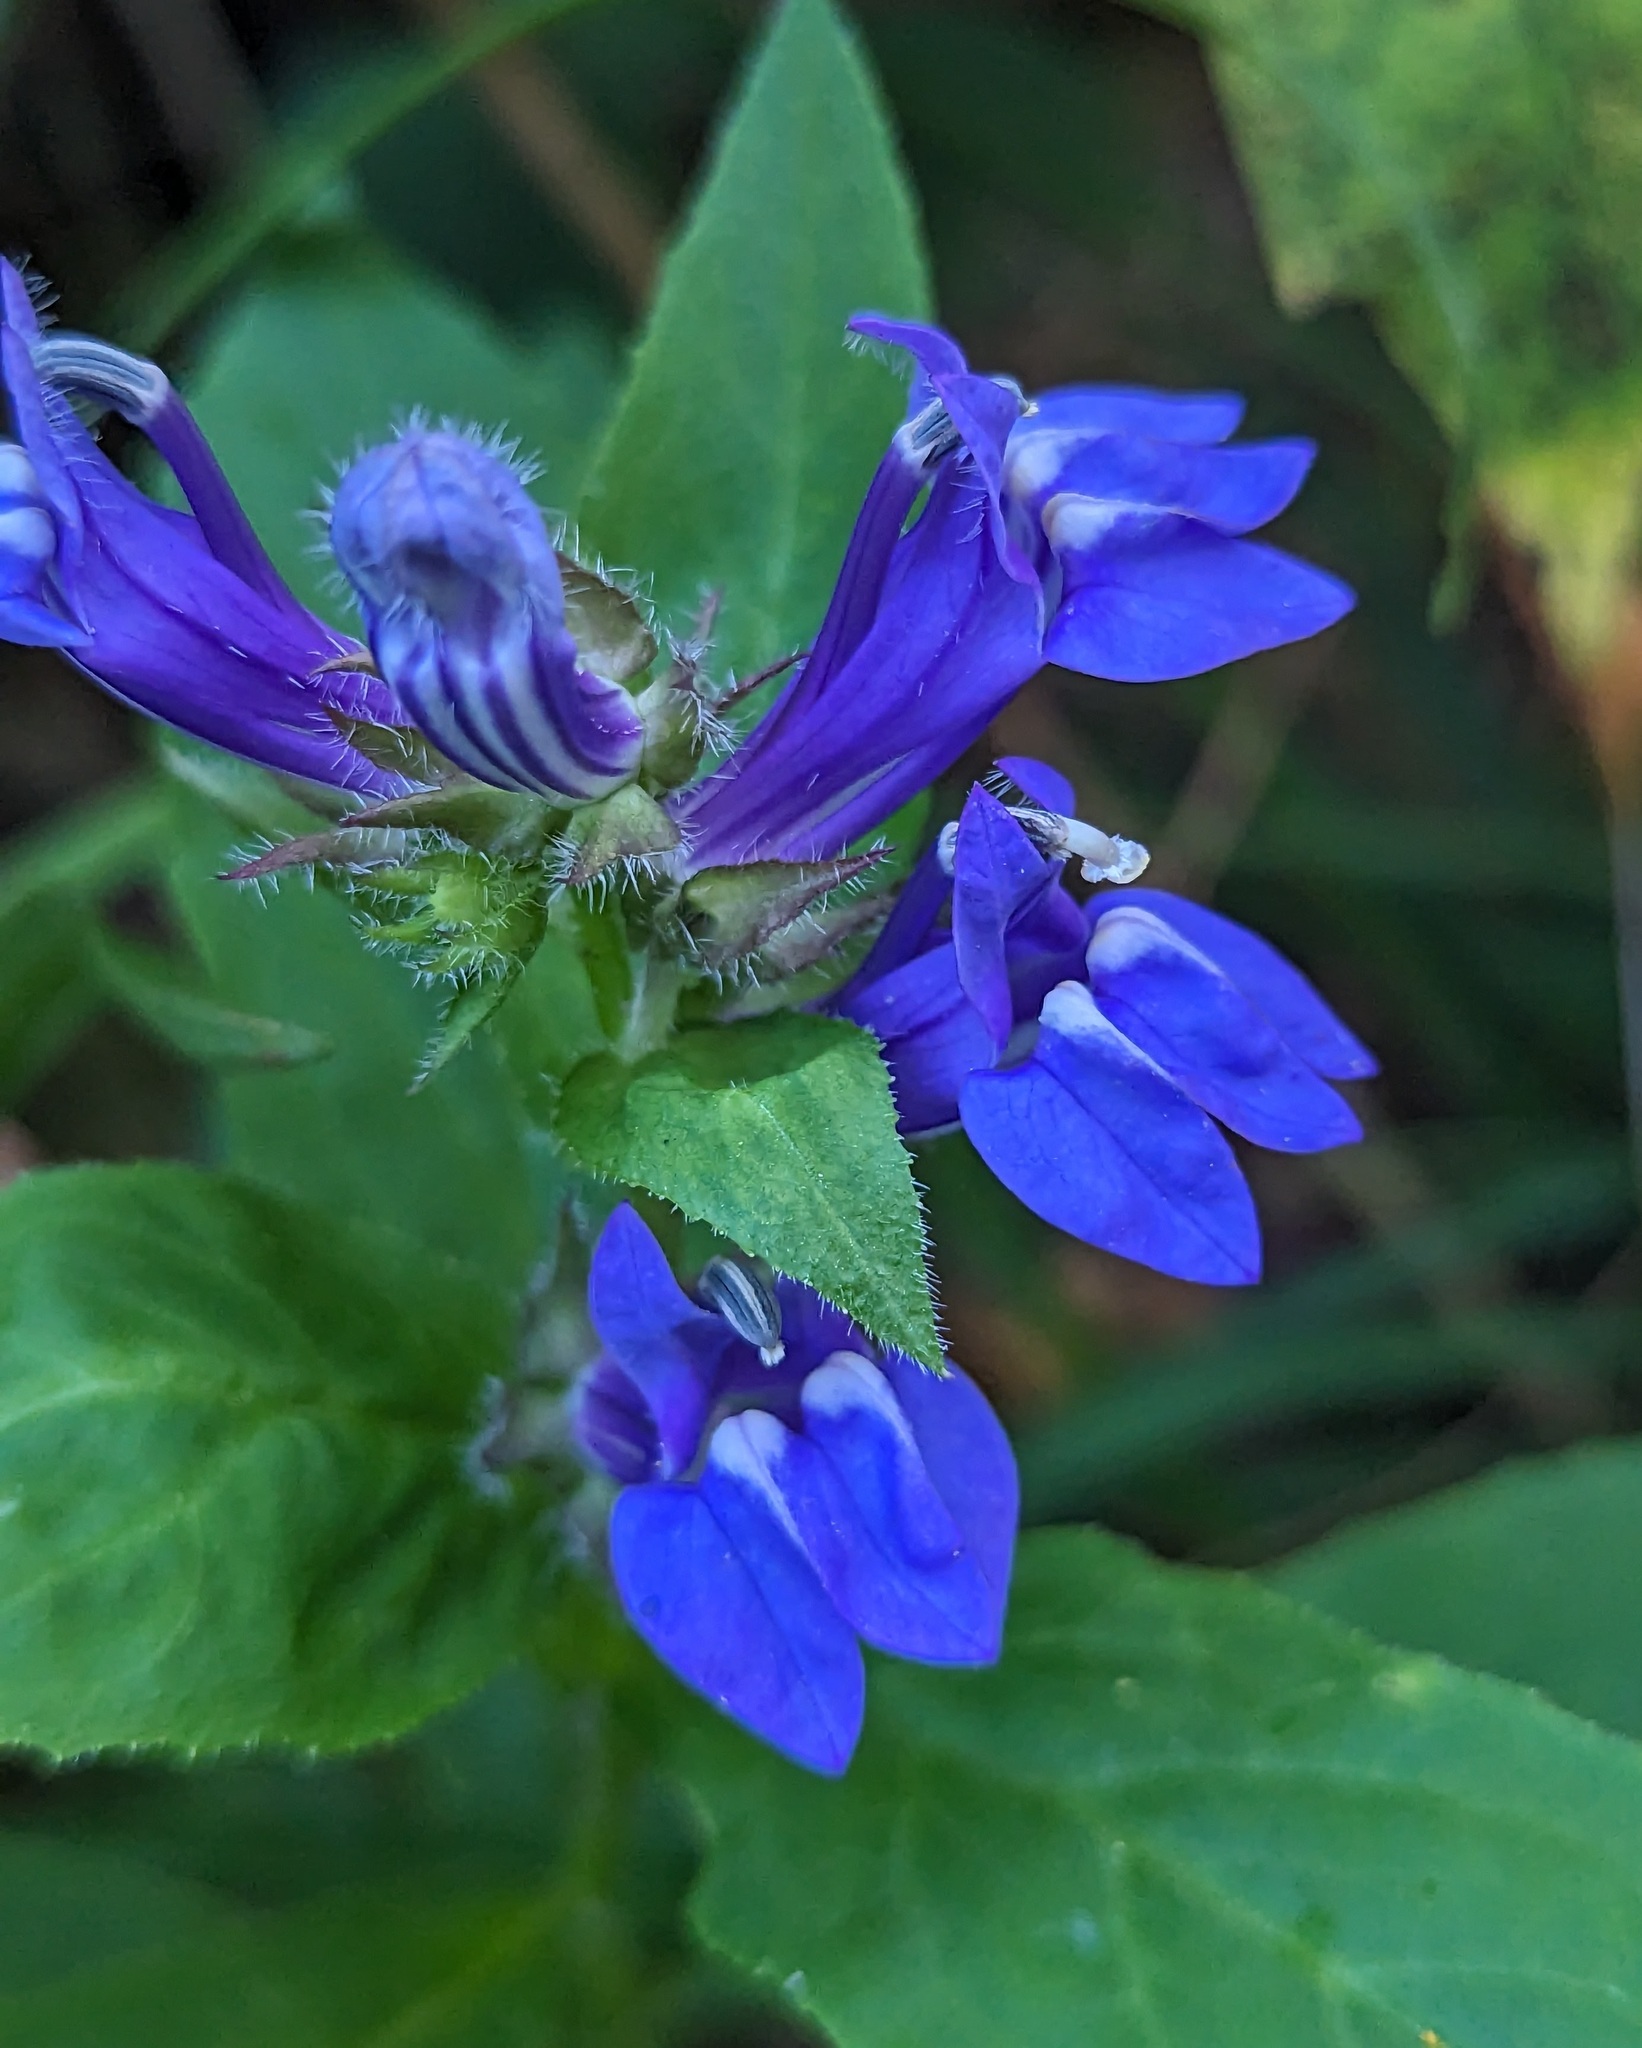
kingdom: Plantae
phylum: Tracheophyta
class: Magnoliopsida
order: Asterales
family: Campanulaceae
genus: Lobelia
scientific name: Lobelia siphilitica
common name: Great lobelia
